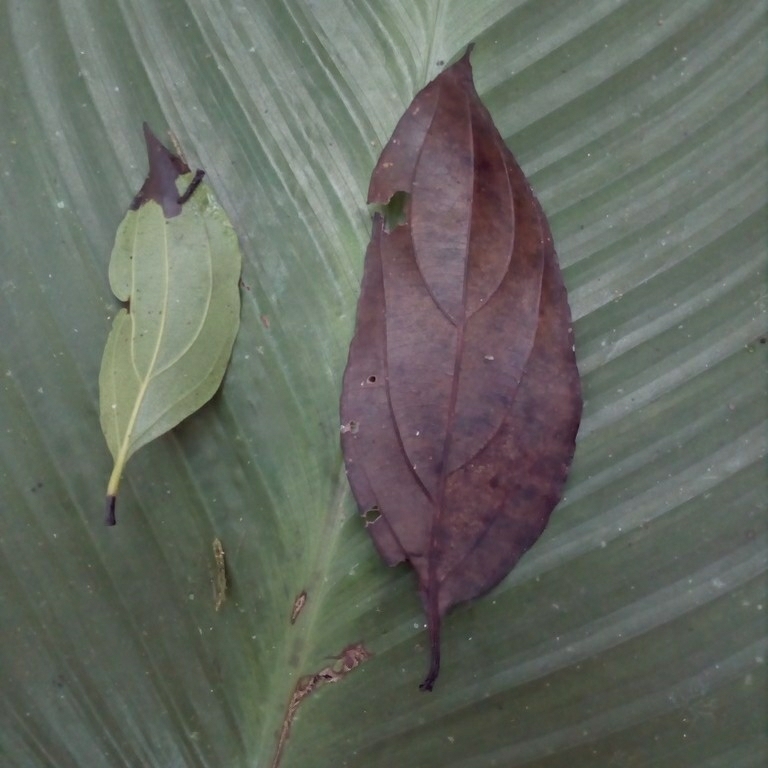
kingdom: Plantae
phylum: Tracheophyta
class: Magnoliopsida
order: Malpighiales
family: Goupiaceae
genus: Goupia
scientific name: Goupia glabra
